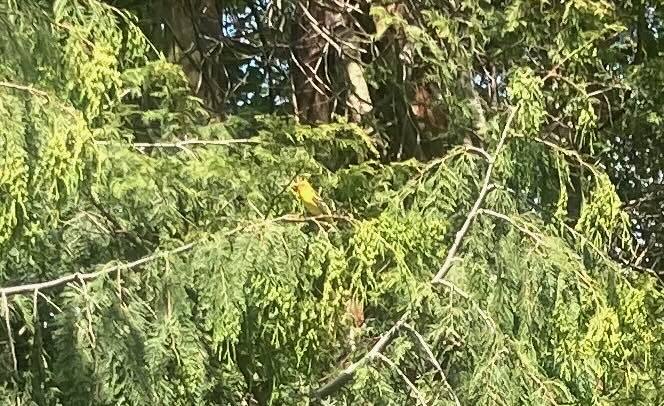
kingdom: Animalia
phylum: Chordata
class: Aves
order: Passeriformes
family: Cardinalidae
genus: Piranga
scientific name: Piranga ludoviciana
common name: Western tanager
